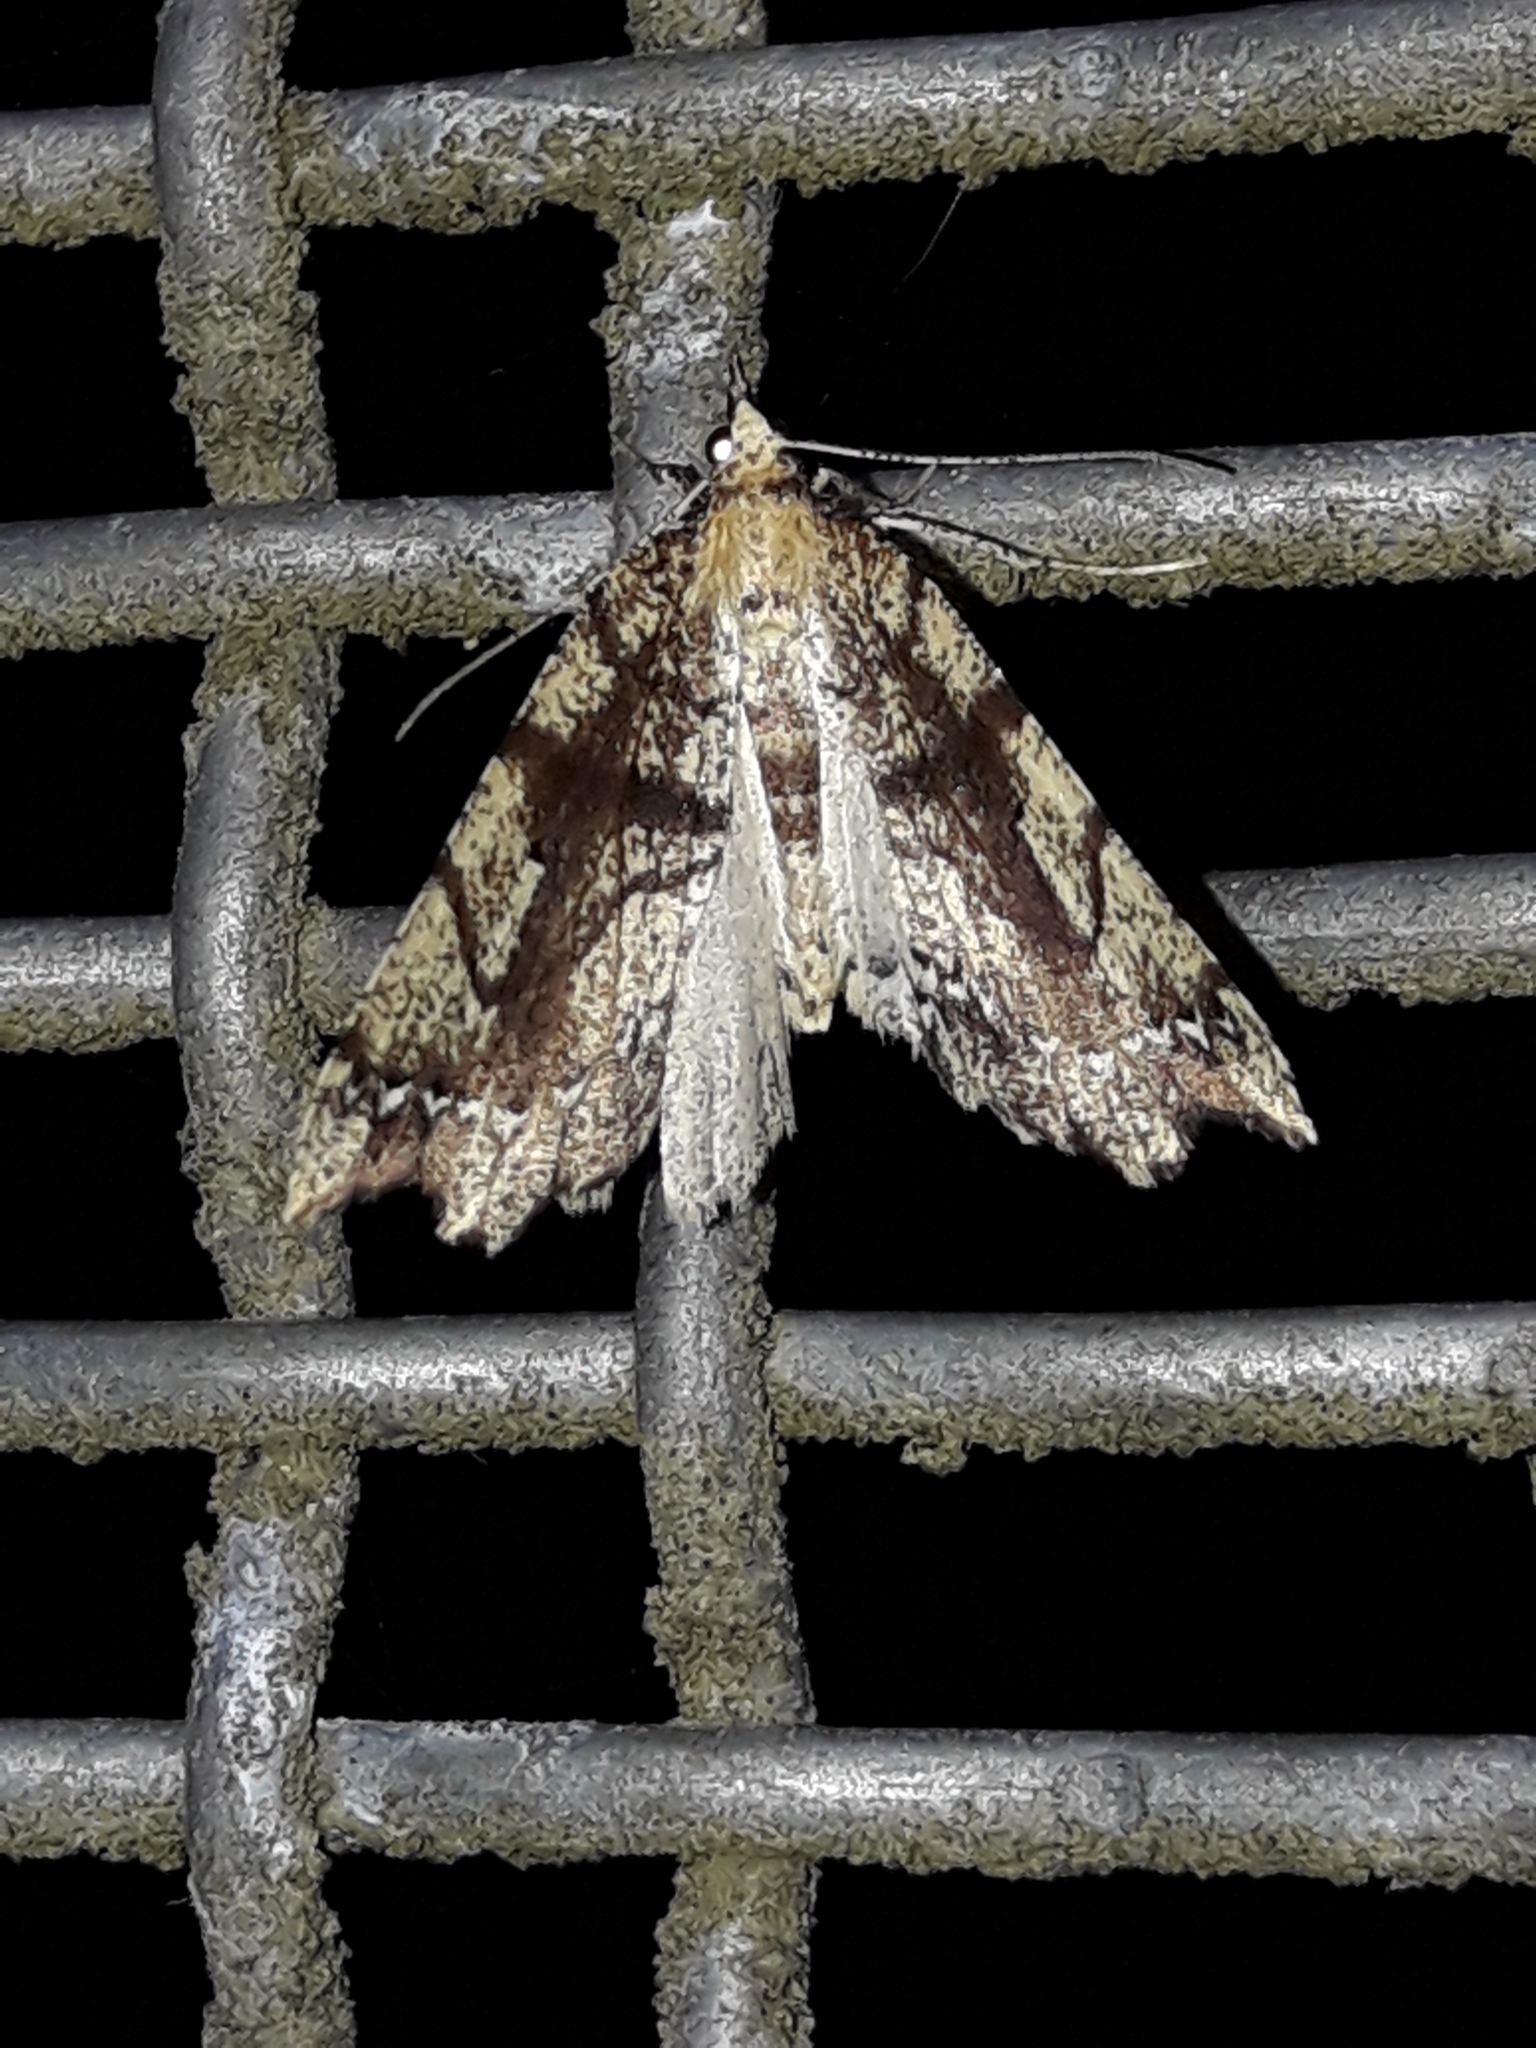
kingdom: Animalia
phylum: Arthropoda
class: Insecta
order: Lepidoptera
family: Geometridae
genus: Chalastra
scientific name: Chalastra pellurgata
